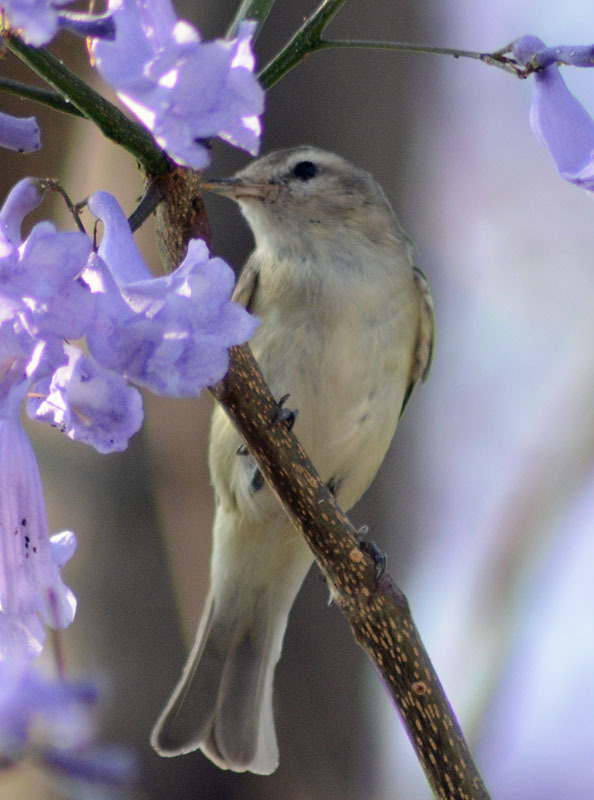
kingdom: Animalia
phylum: Chordata
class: Aves
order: Passeriformes
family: Vireonidae
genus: Vireo
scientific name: Vireo gilvus
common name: Warbling vireo
